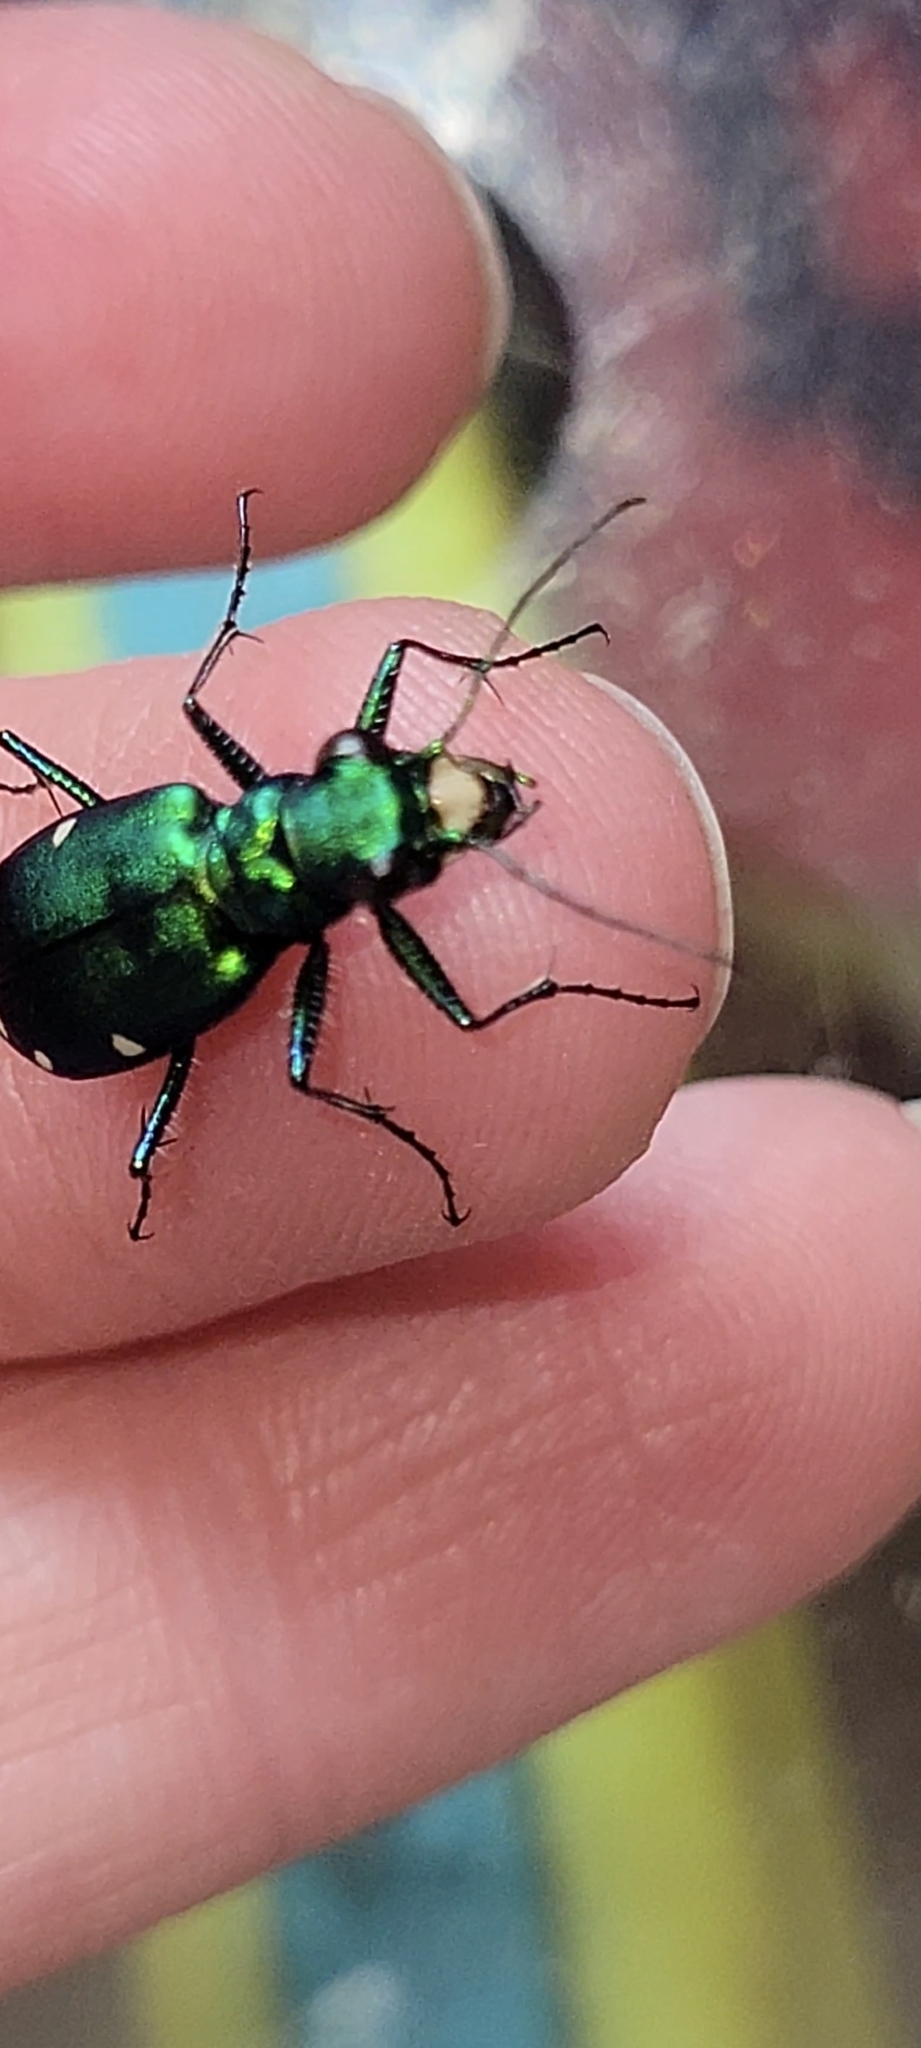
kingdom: Animalia
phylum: Arthropoda
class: Insecta
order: Coleoptera
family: Carabidae
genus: Cicindela
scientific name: Cicindela sexguttata
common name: Six-spotted tiger beetle
